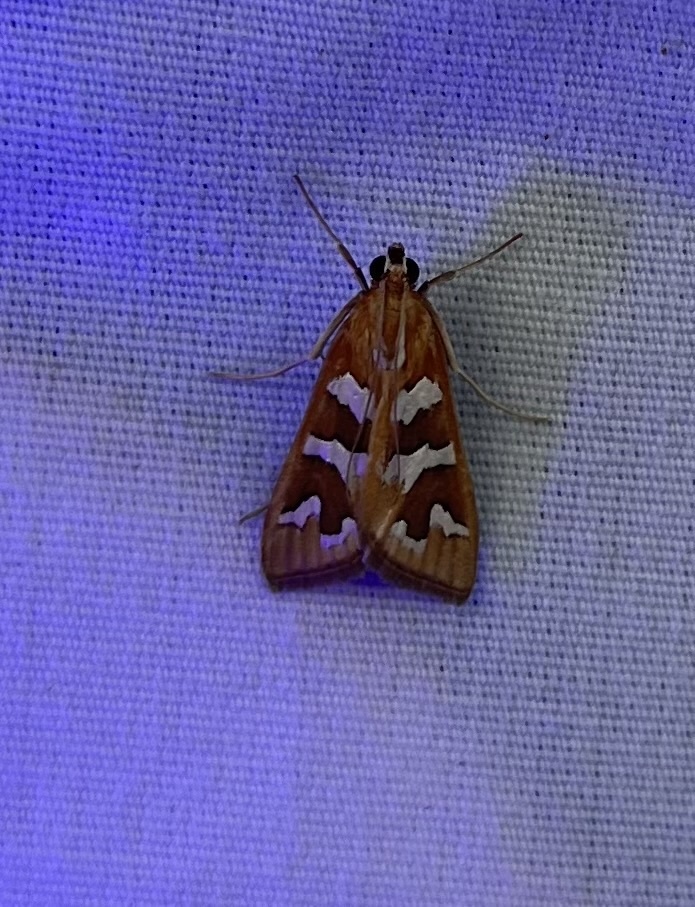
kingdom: Animalia
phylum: Arthropoda
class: Insecta
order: Lepidoptera
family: Crambidae
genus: Diastictis
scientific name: Diastictis fracturalis
